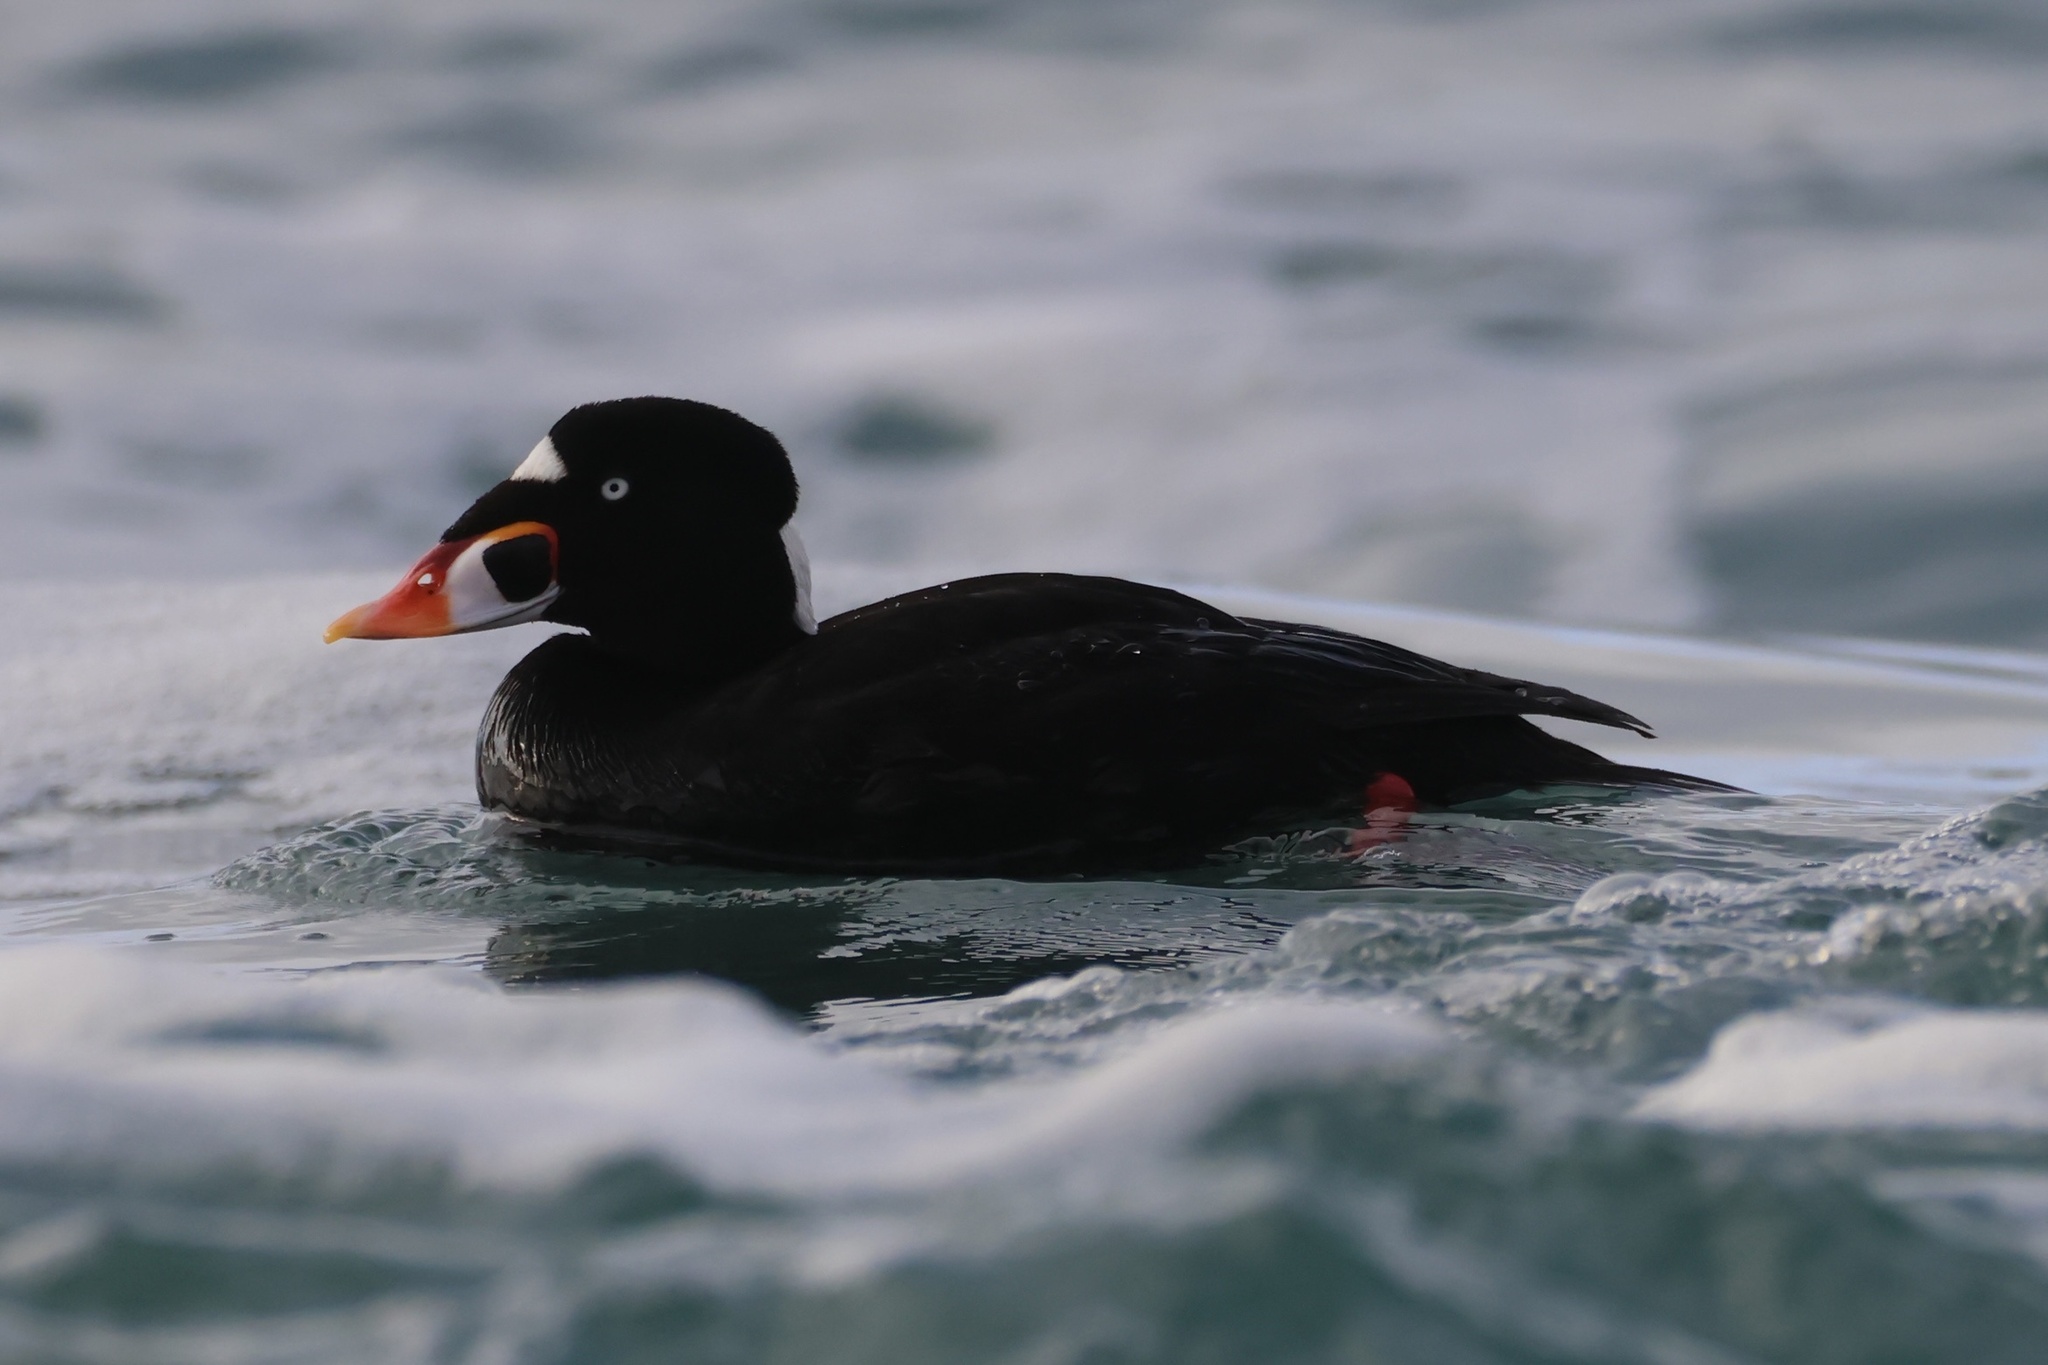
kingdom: Animalia
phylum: Chordata
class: Aves
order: Anseriformes
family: Anatidae
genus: Melanitta
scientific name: Melanitta perspicillata
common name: Surf scoter
